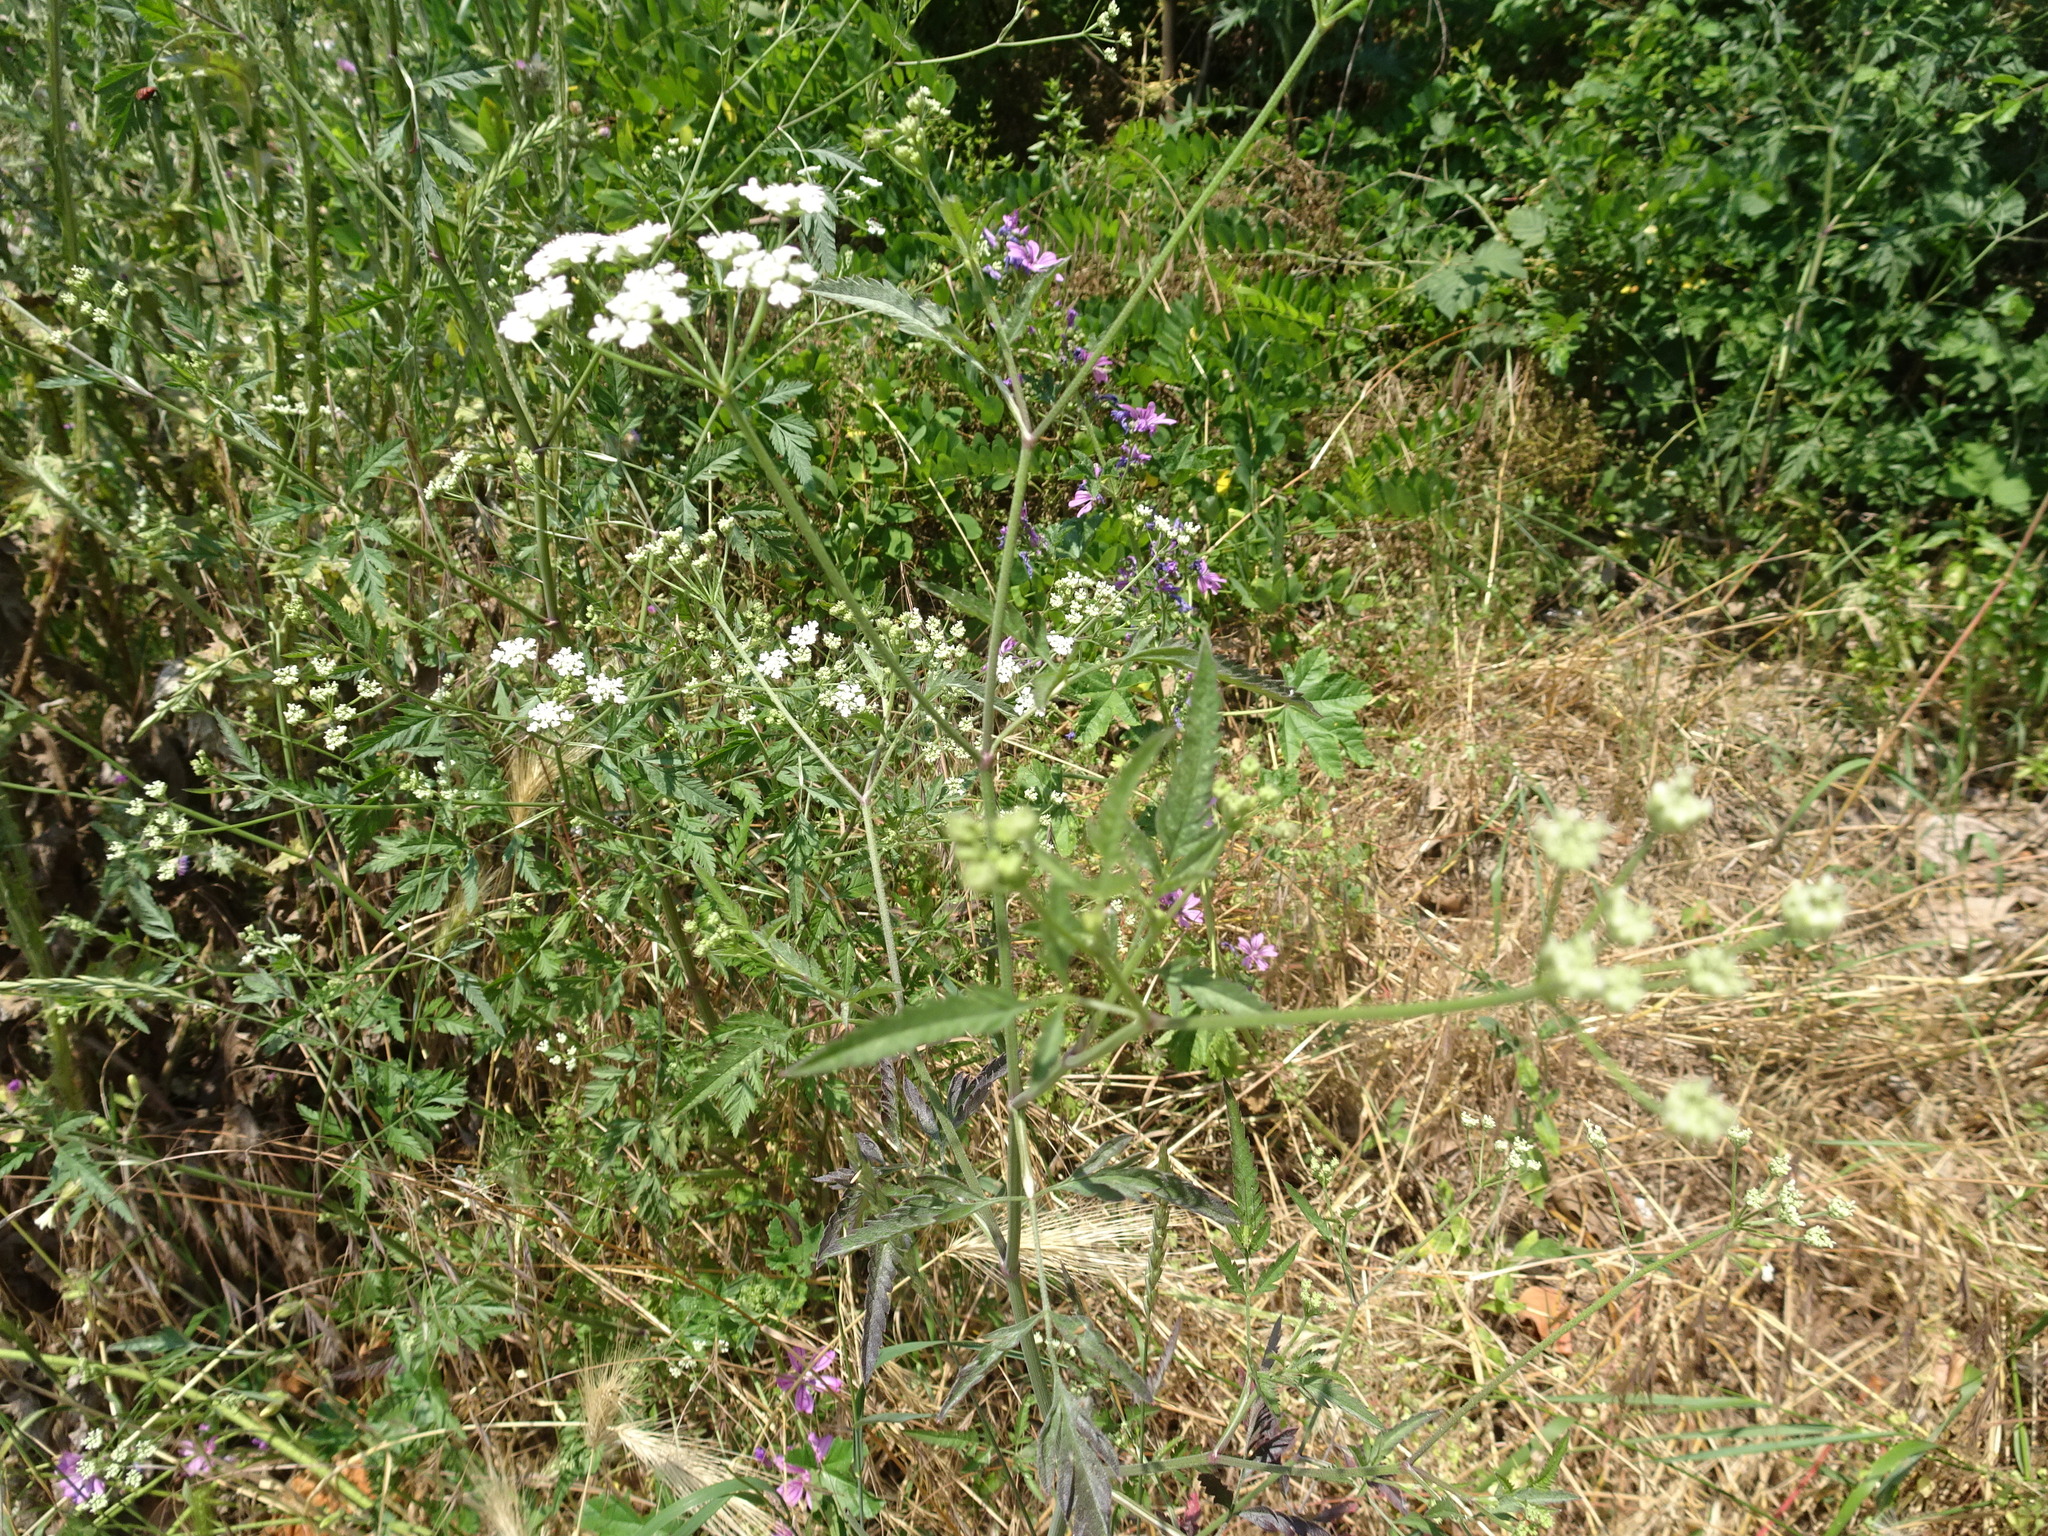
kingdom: Plantae
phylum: Tracheophyta
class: Magnoliopsida
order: Apiales
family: Apiaceae
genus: Torilis
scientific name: Torilis arvensis
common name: Spreading hedge-parsley
